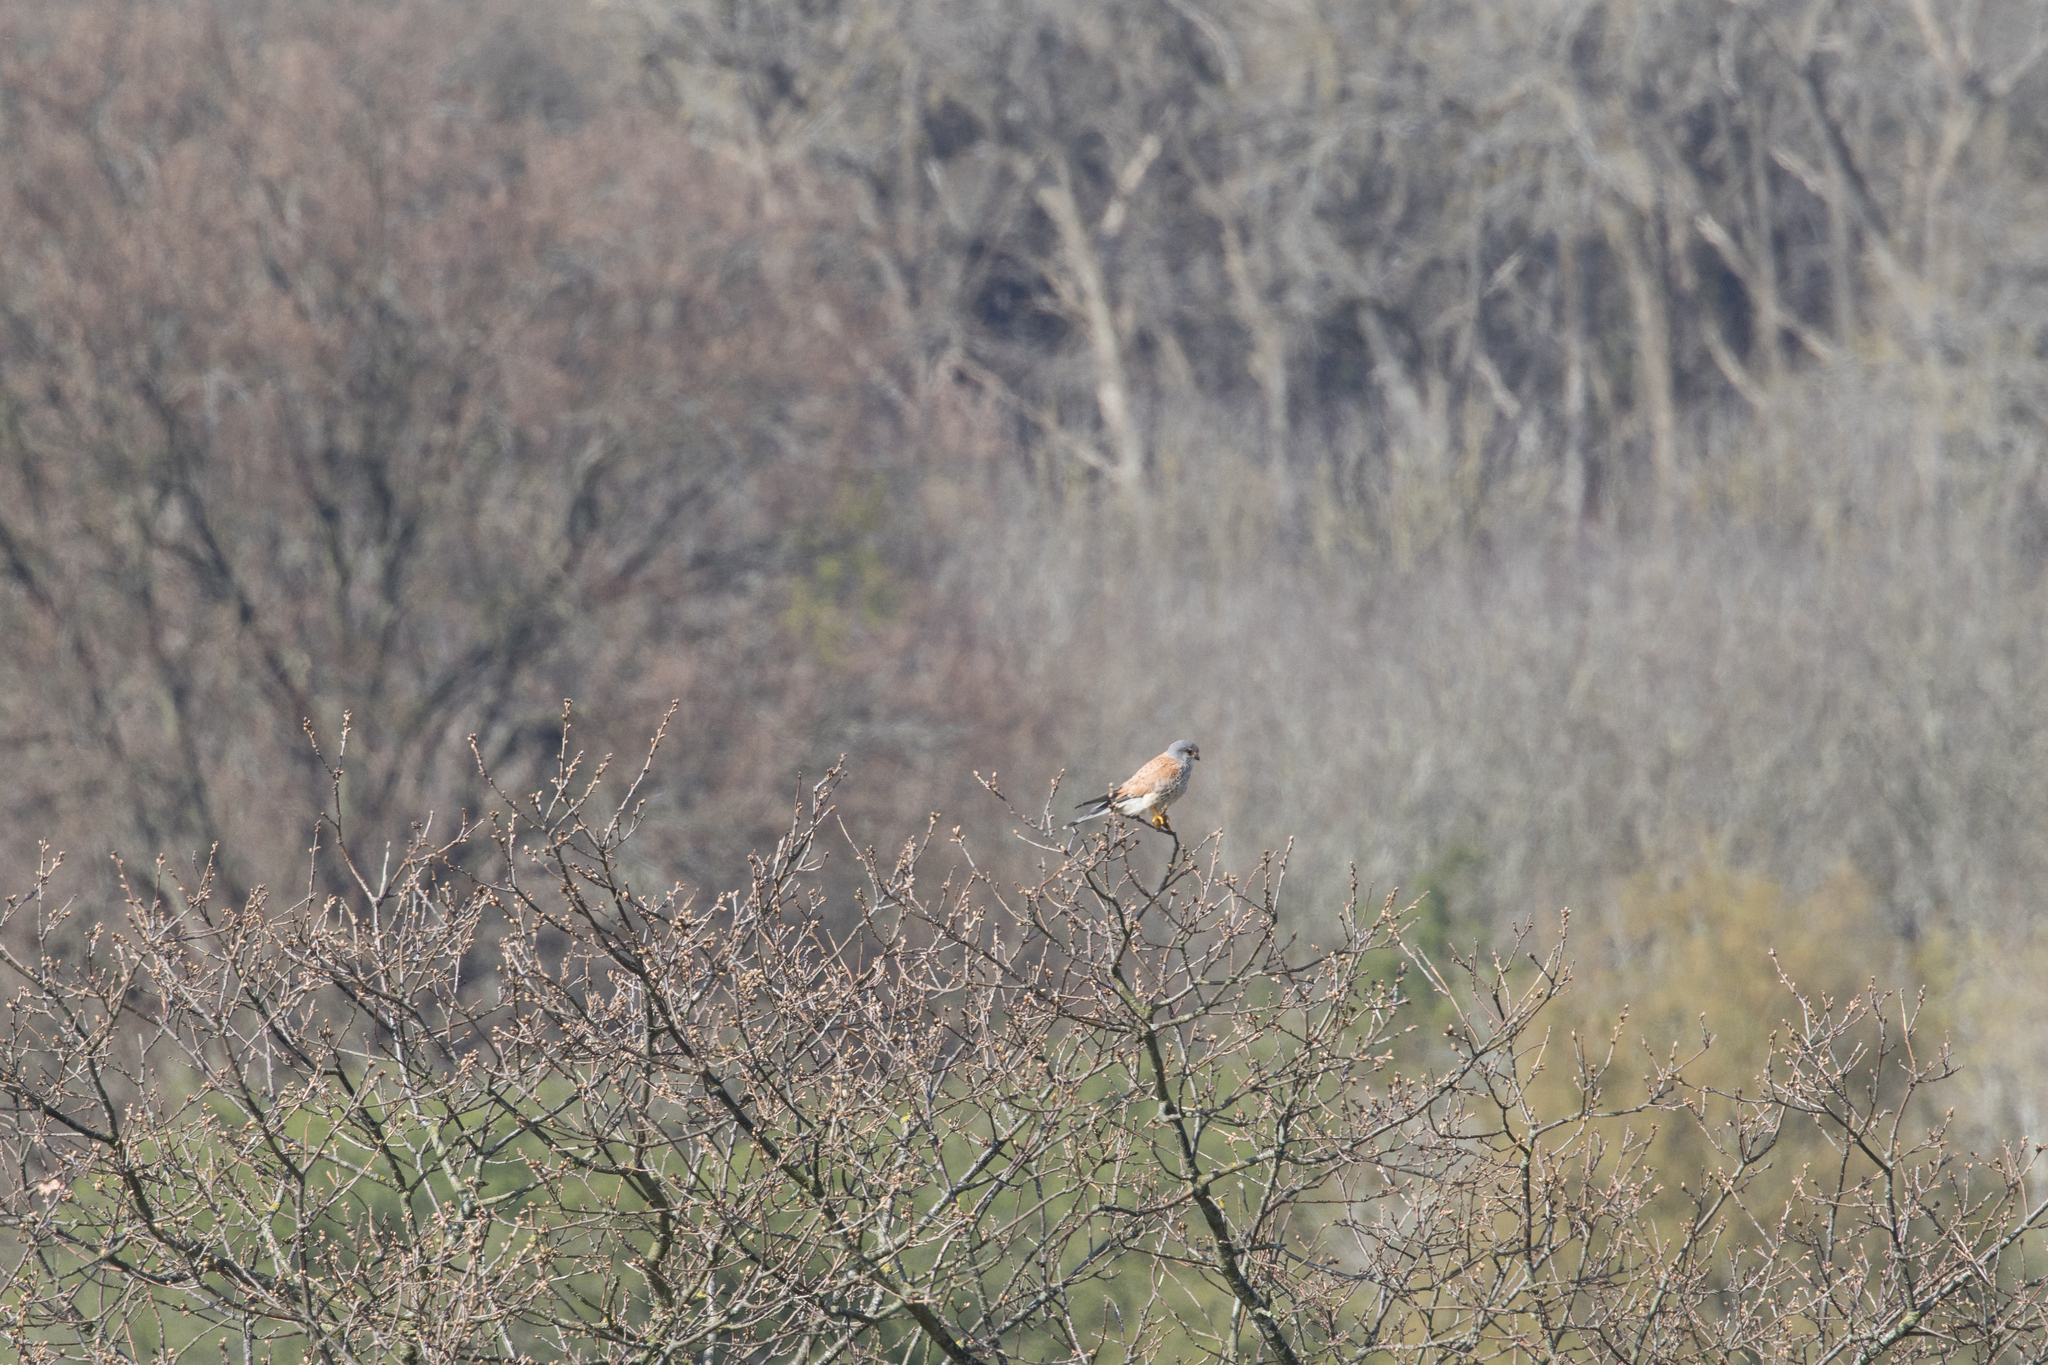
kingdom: Animalia
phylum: Chordata
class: Aves
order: Falconiformes
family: Falconidae
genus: Falco
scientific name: Falco tinnunculus
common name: Common kestrel
